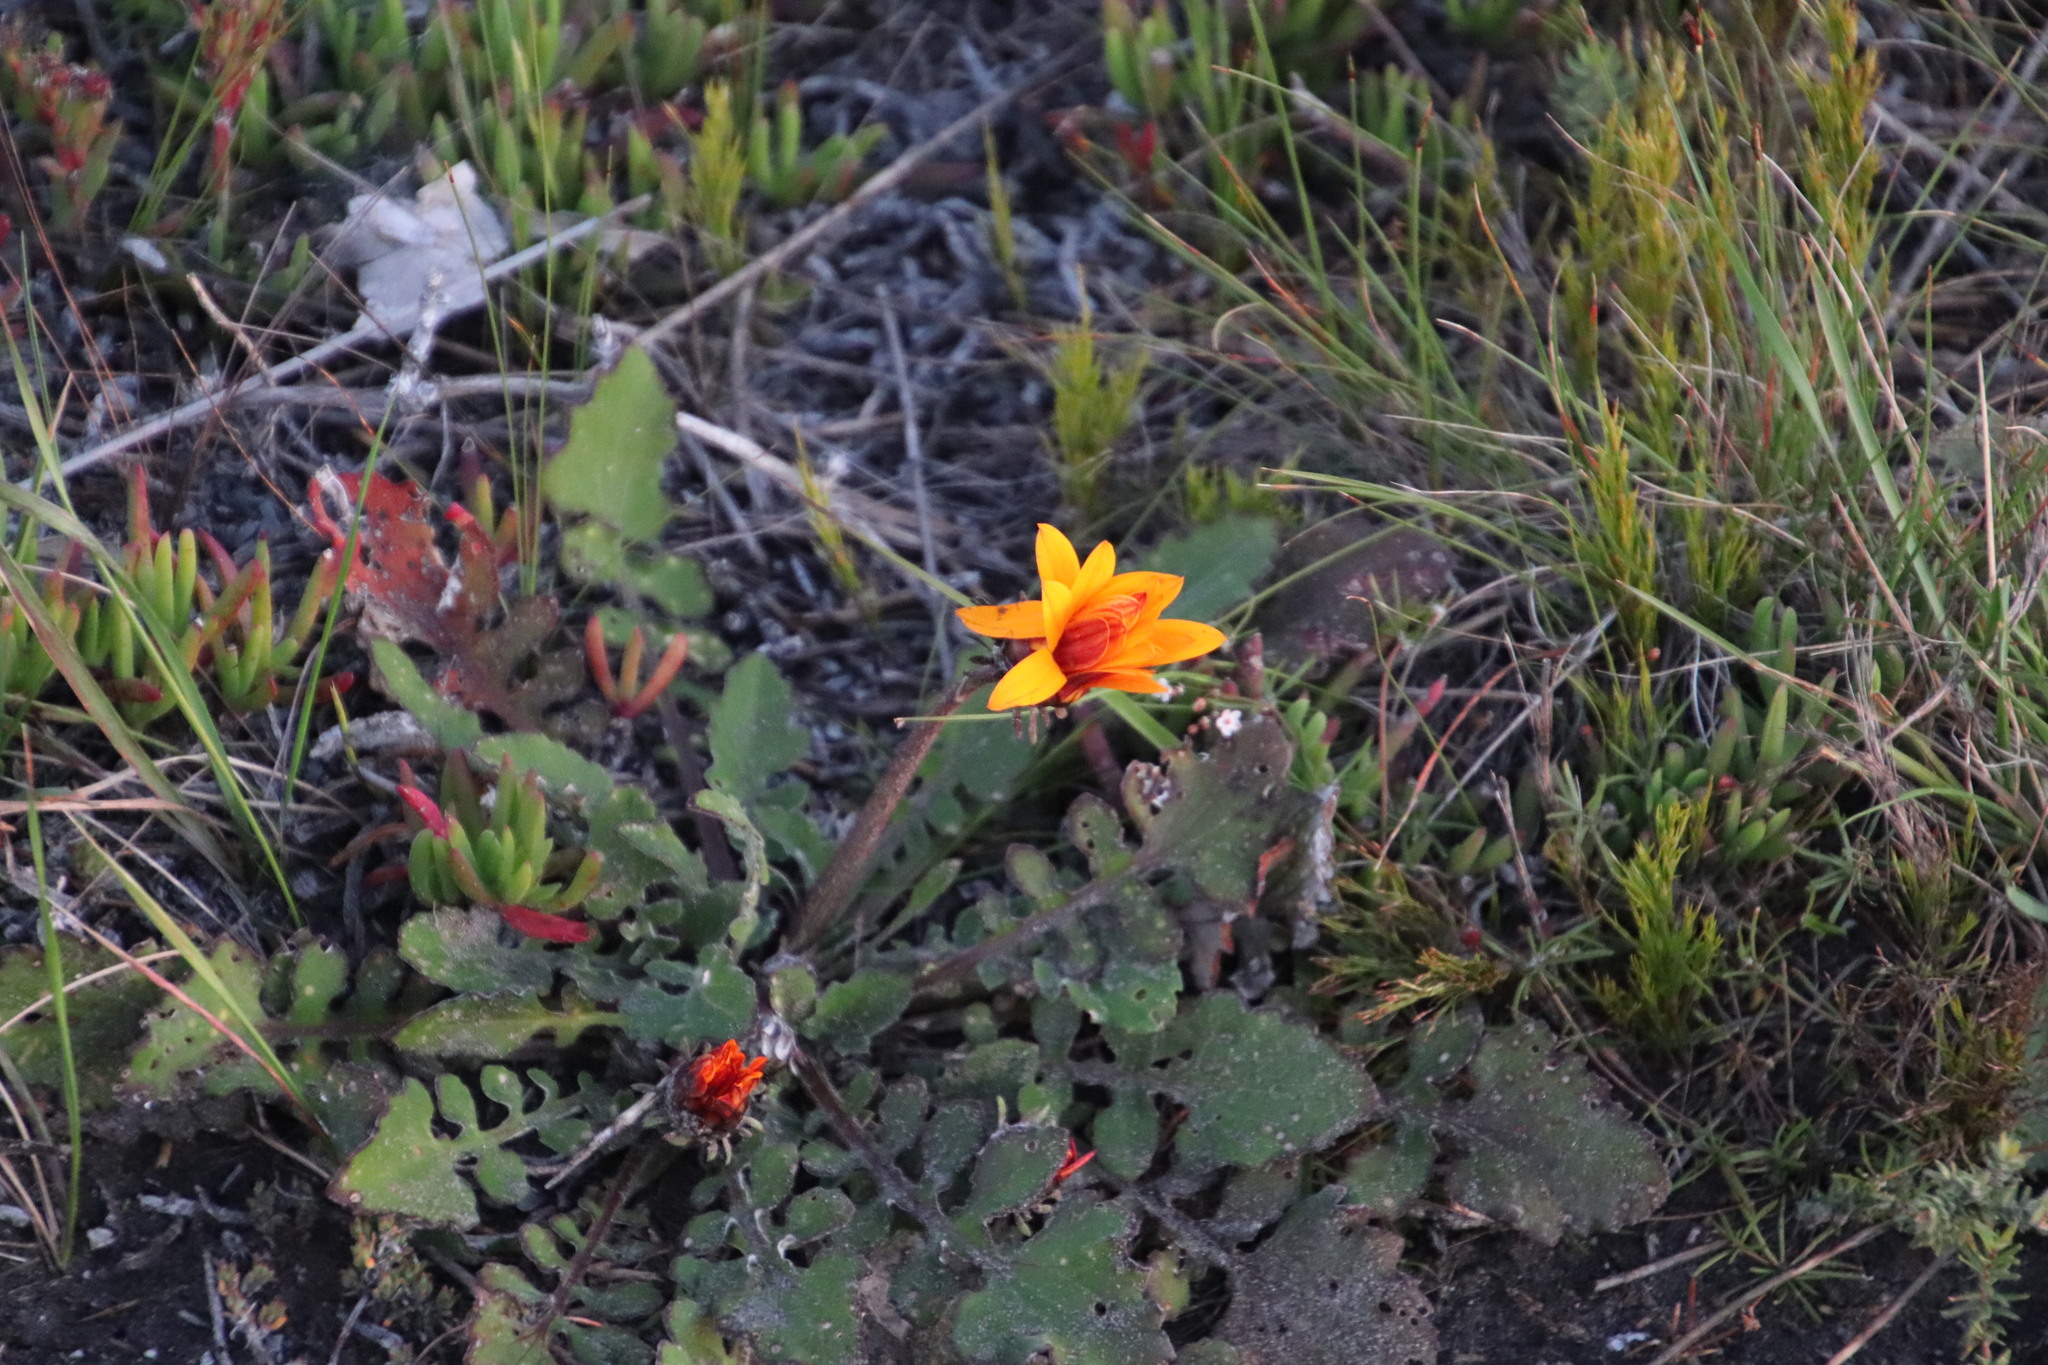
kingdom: Plantae
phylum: Tracheophyta
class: Magnoliopsida
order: Asterales
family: Asteraceae
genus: Arctotis
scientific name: Arctotis acaulis
